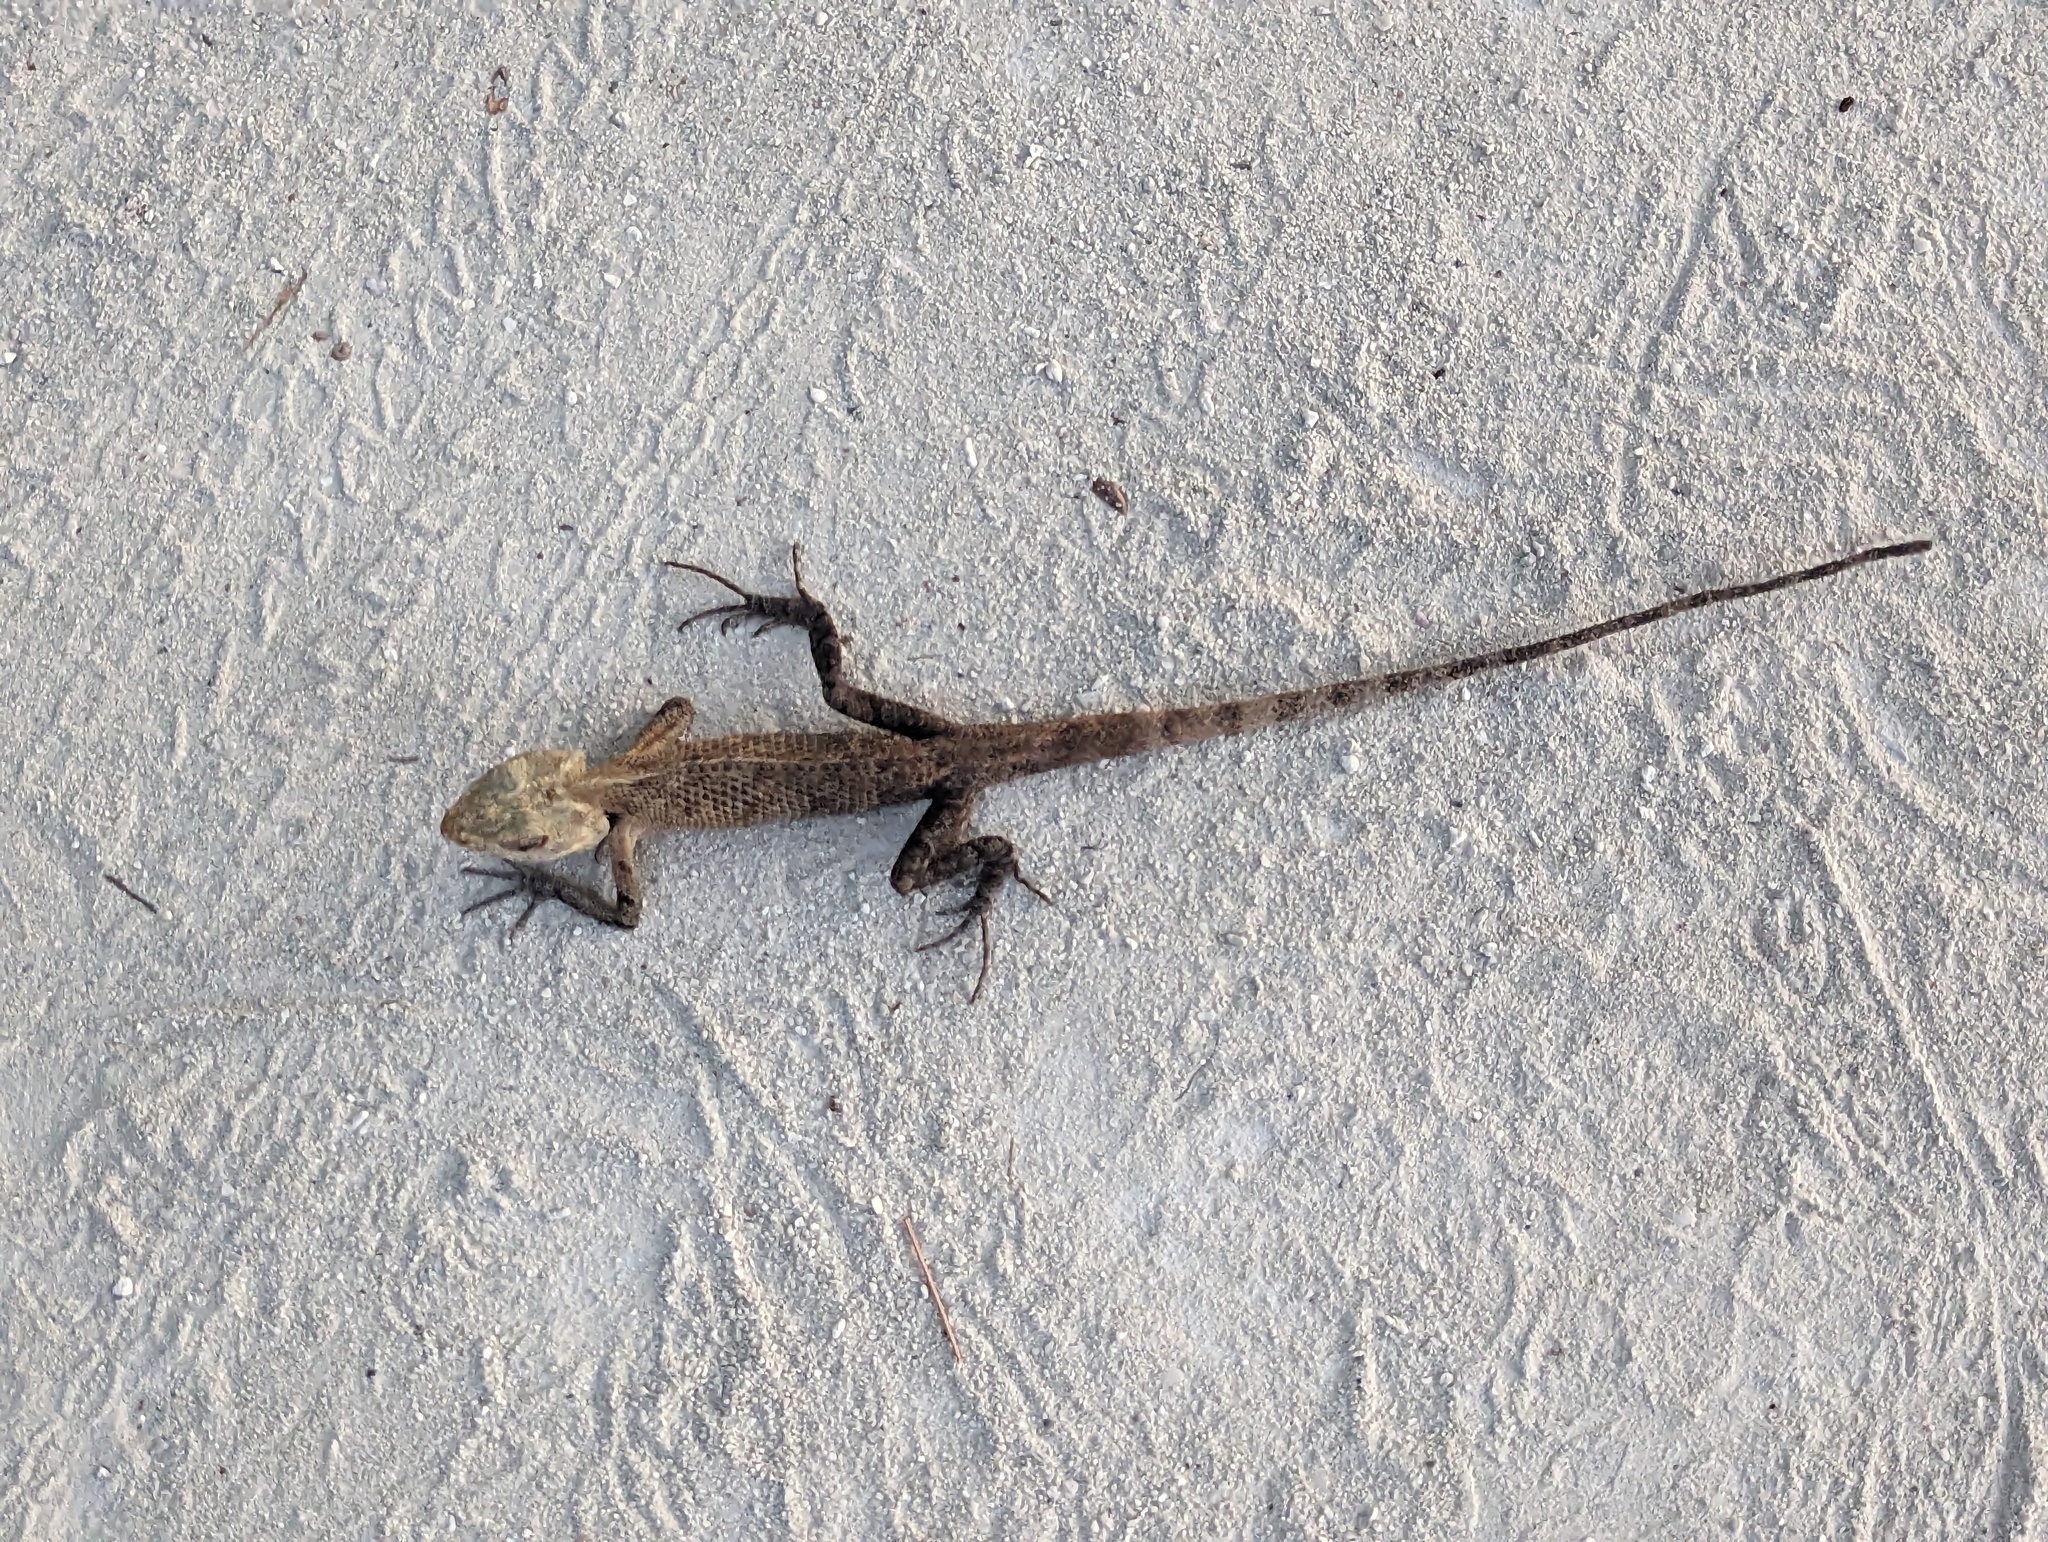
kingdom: Animalia
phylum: Chordata
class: Squamata
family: Agamidae
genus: Calotes
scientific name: Calotes versicolor
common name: Oriental garden lizard
